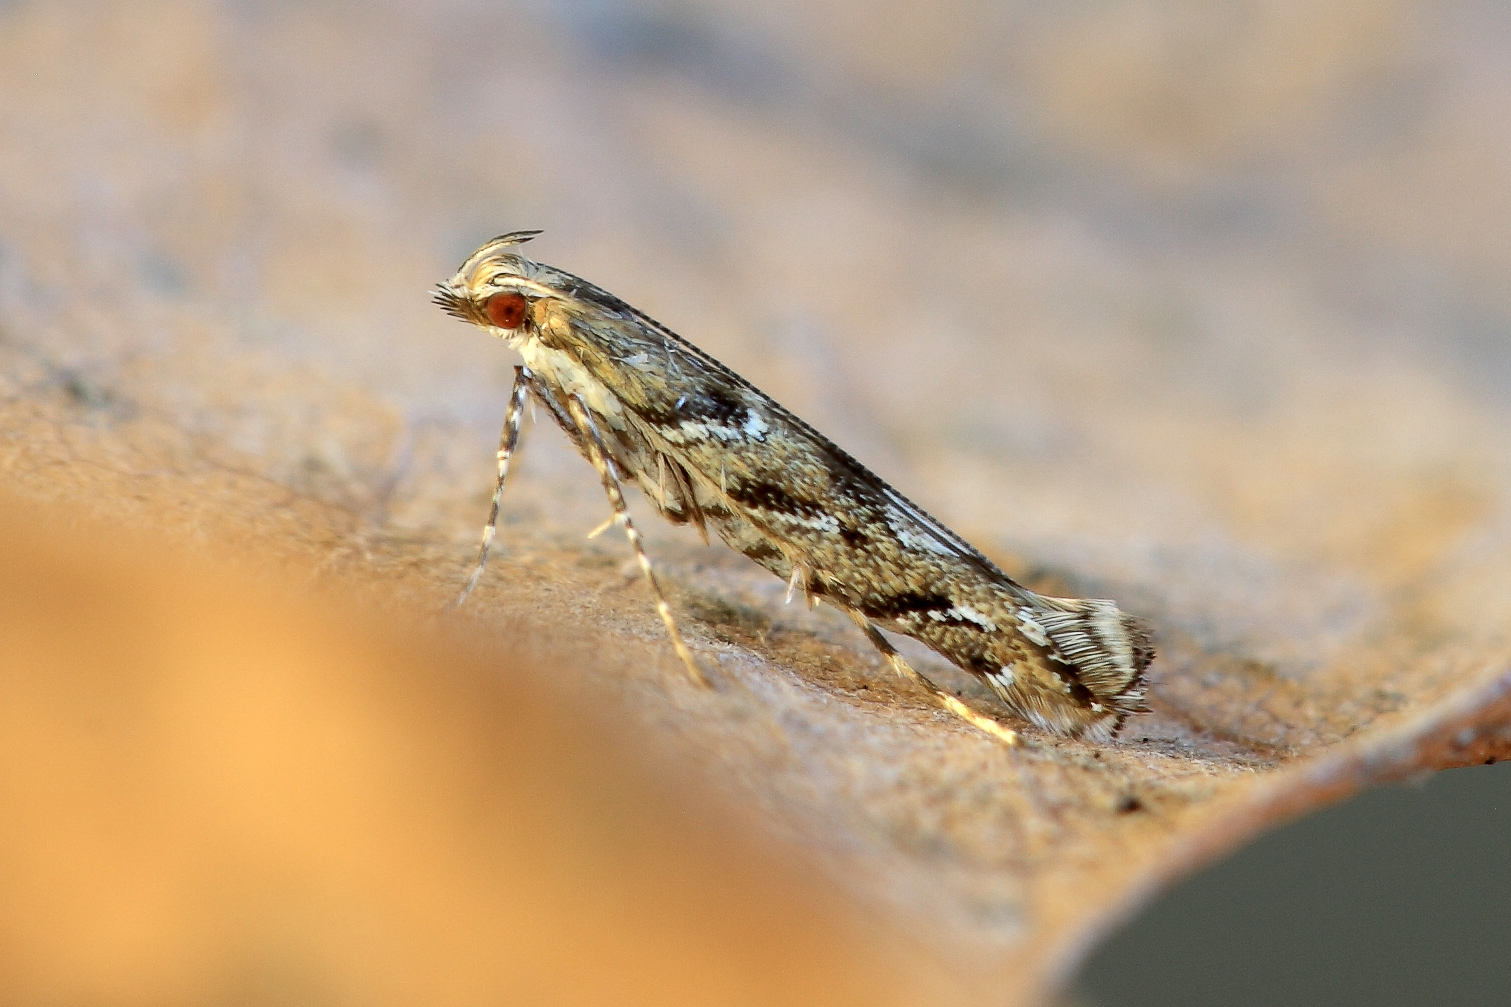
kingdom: Animalia
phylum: Arthropoda
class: Insecta
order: Lepidoptera
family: Gracillariidae
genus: Acrocercops
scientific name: Acrocercops brongniardella
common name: Brown oak slender
